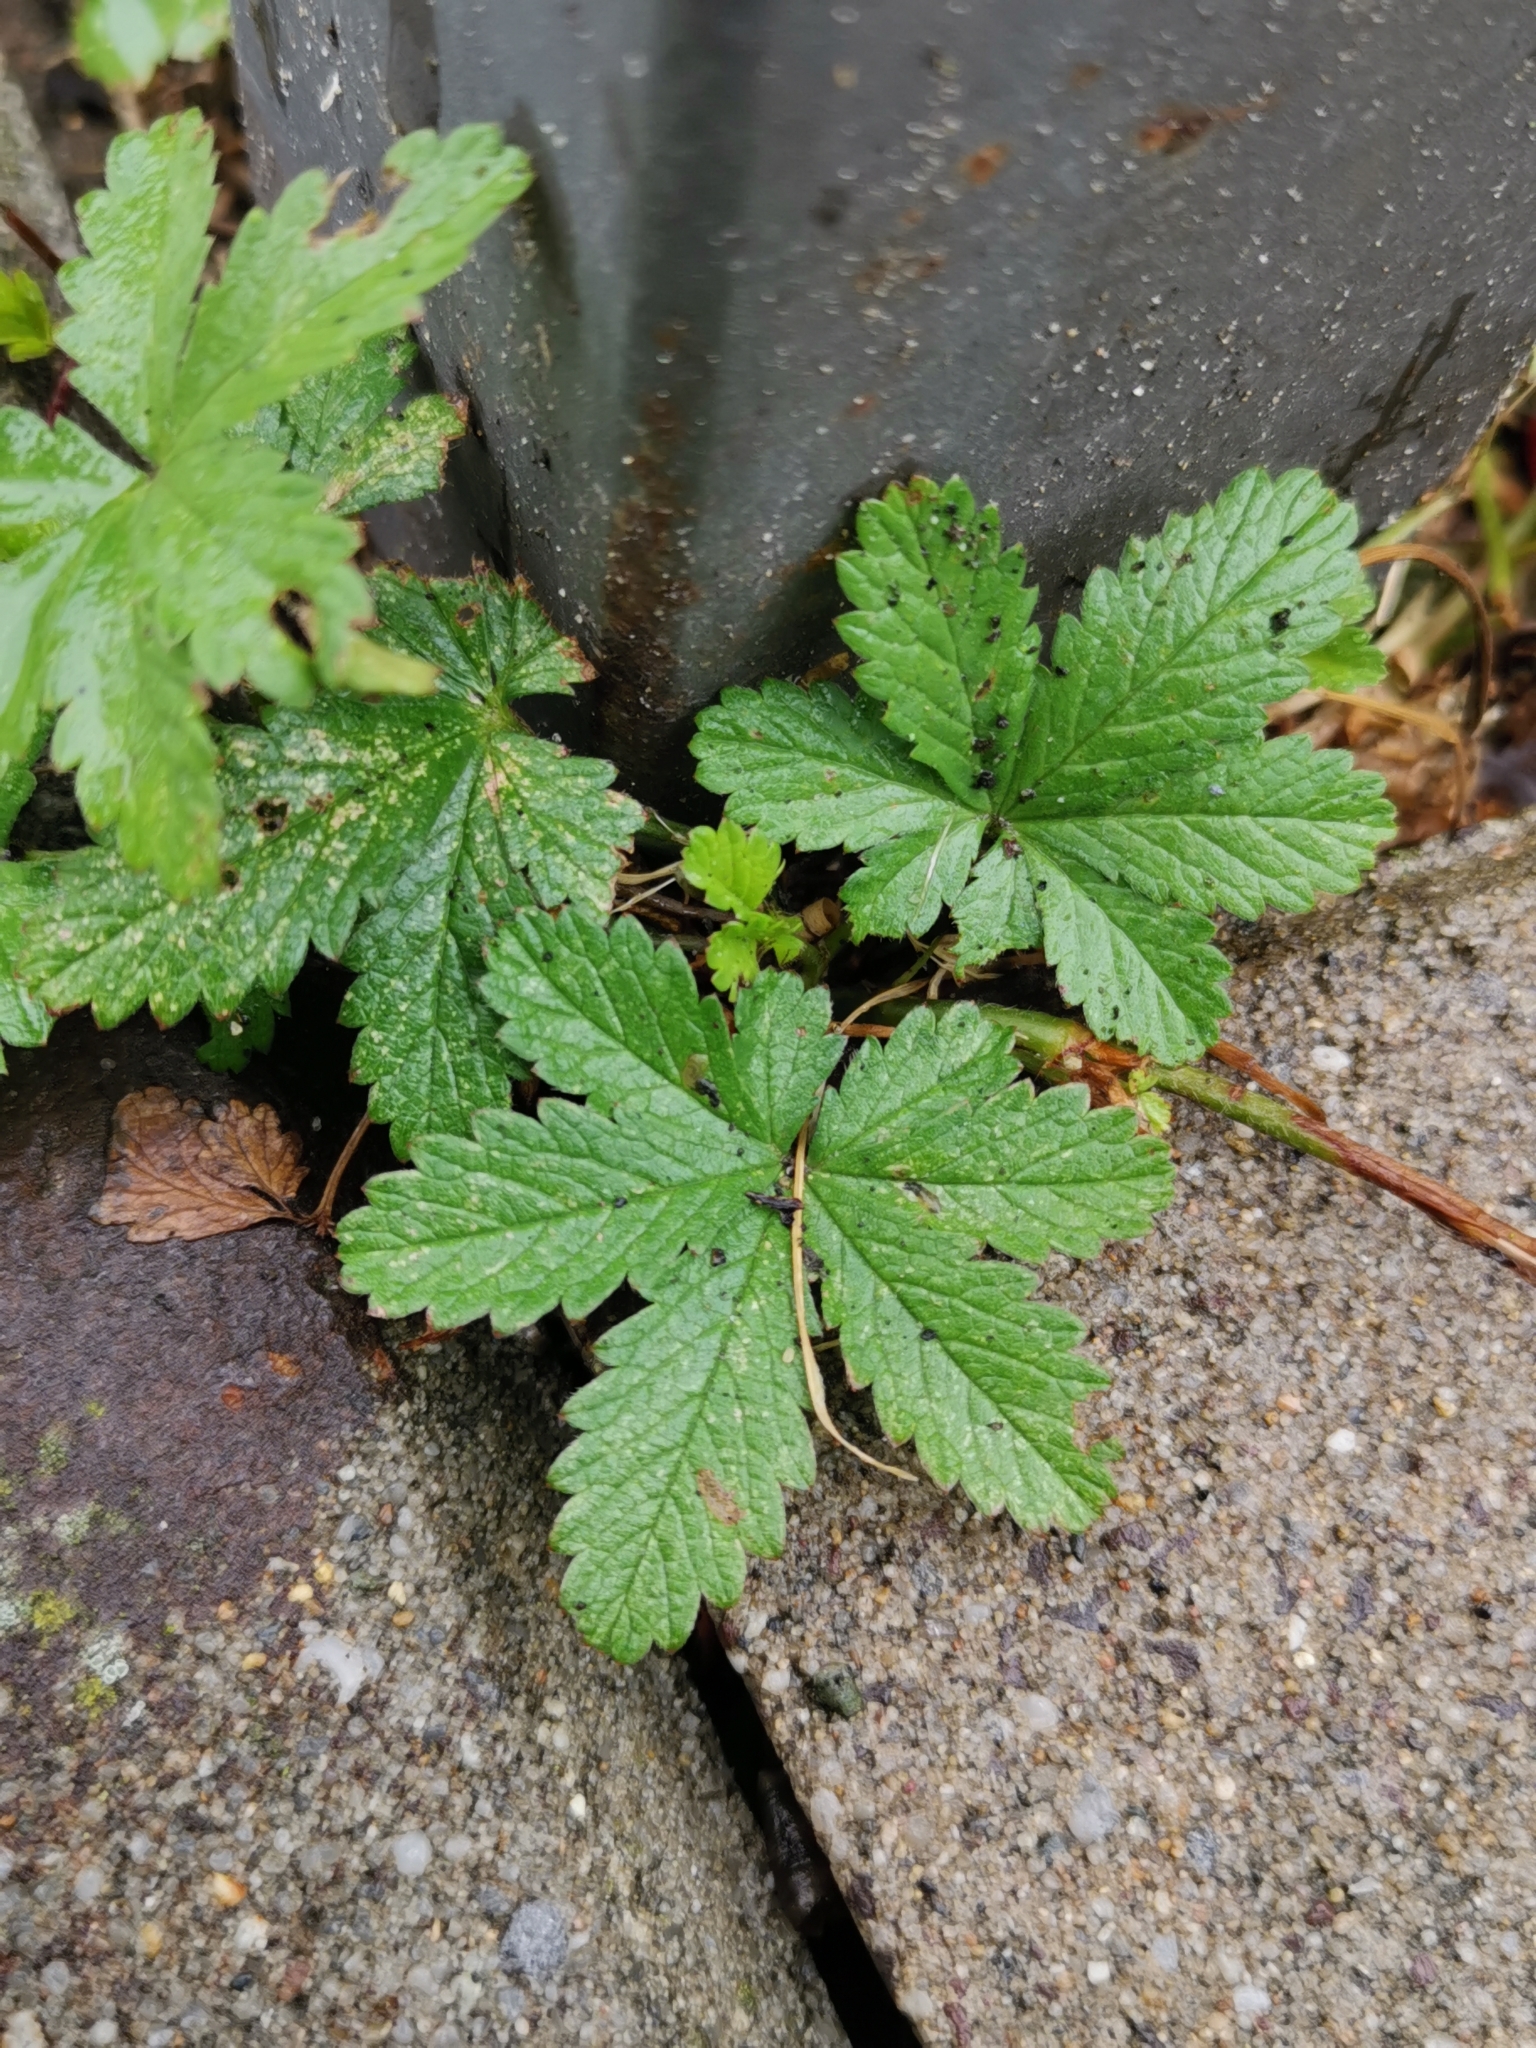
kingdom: Plantae
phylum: Tracheophyta
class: Magnoliopsida
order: Rosales
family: Rosaceae
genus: Potentilla
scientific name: Potentilla reptans
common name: Creeping cinquefoil
